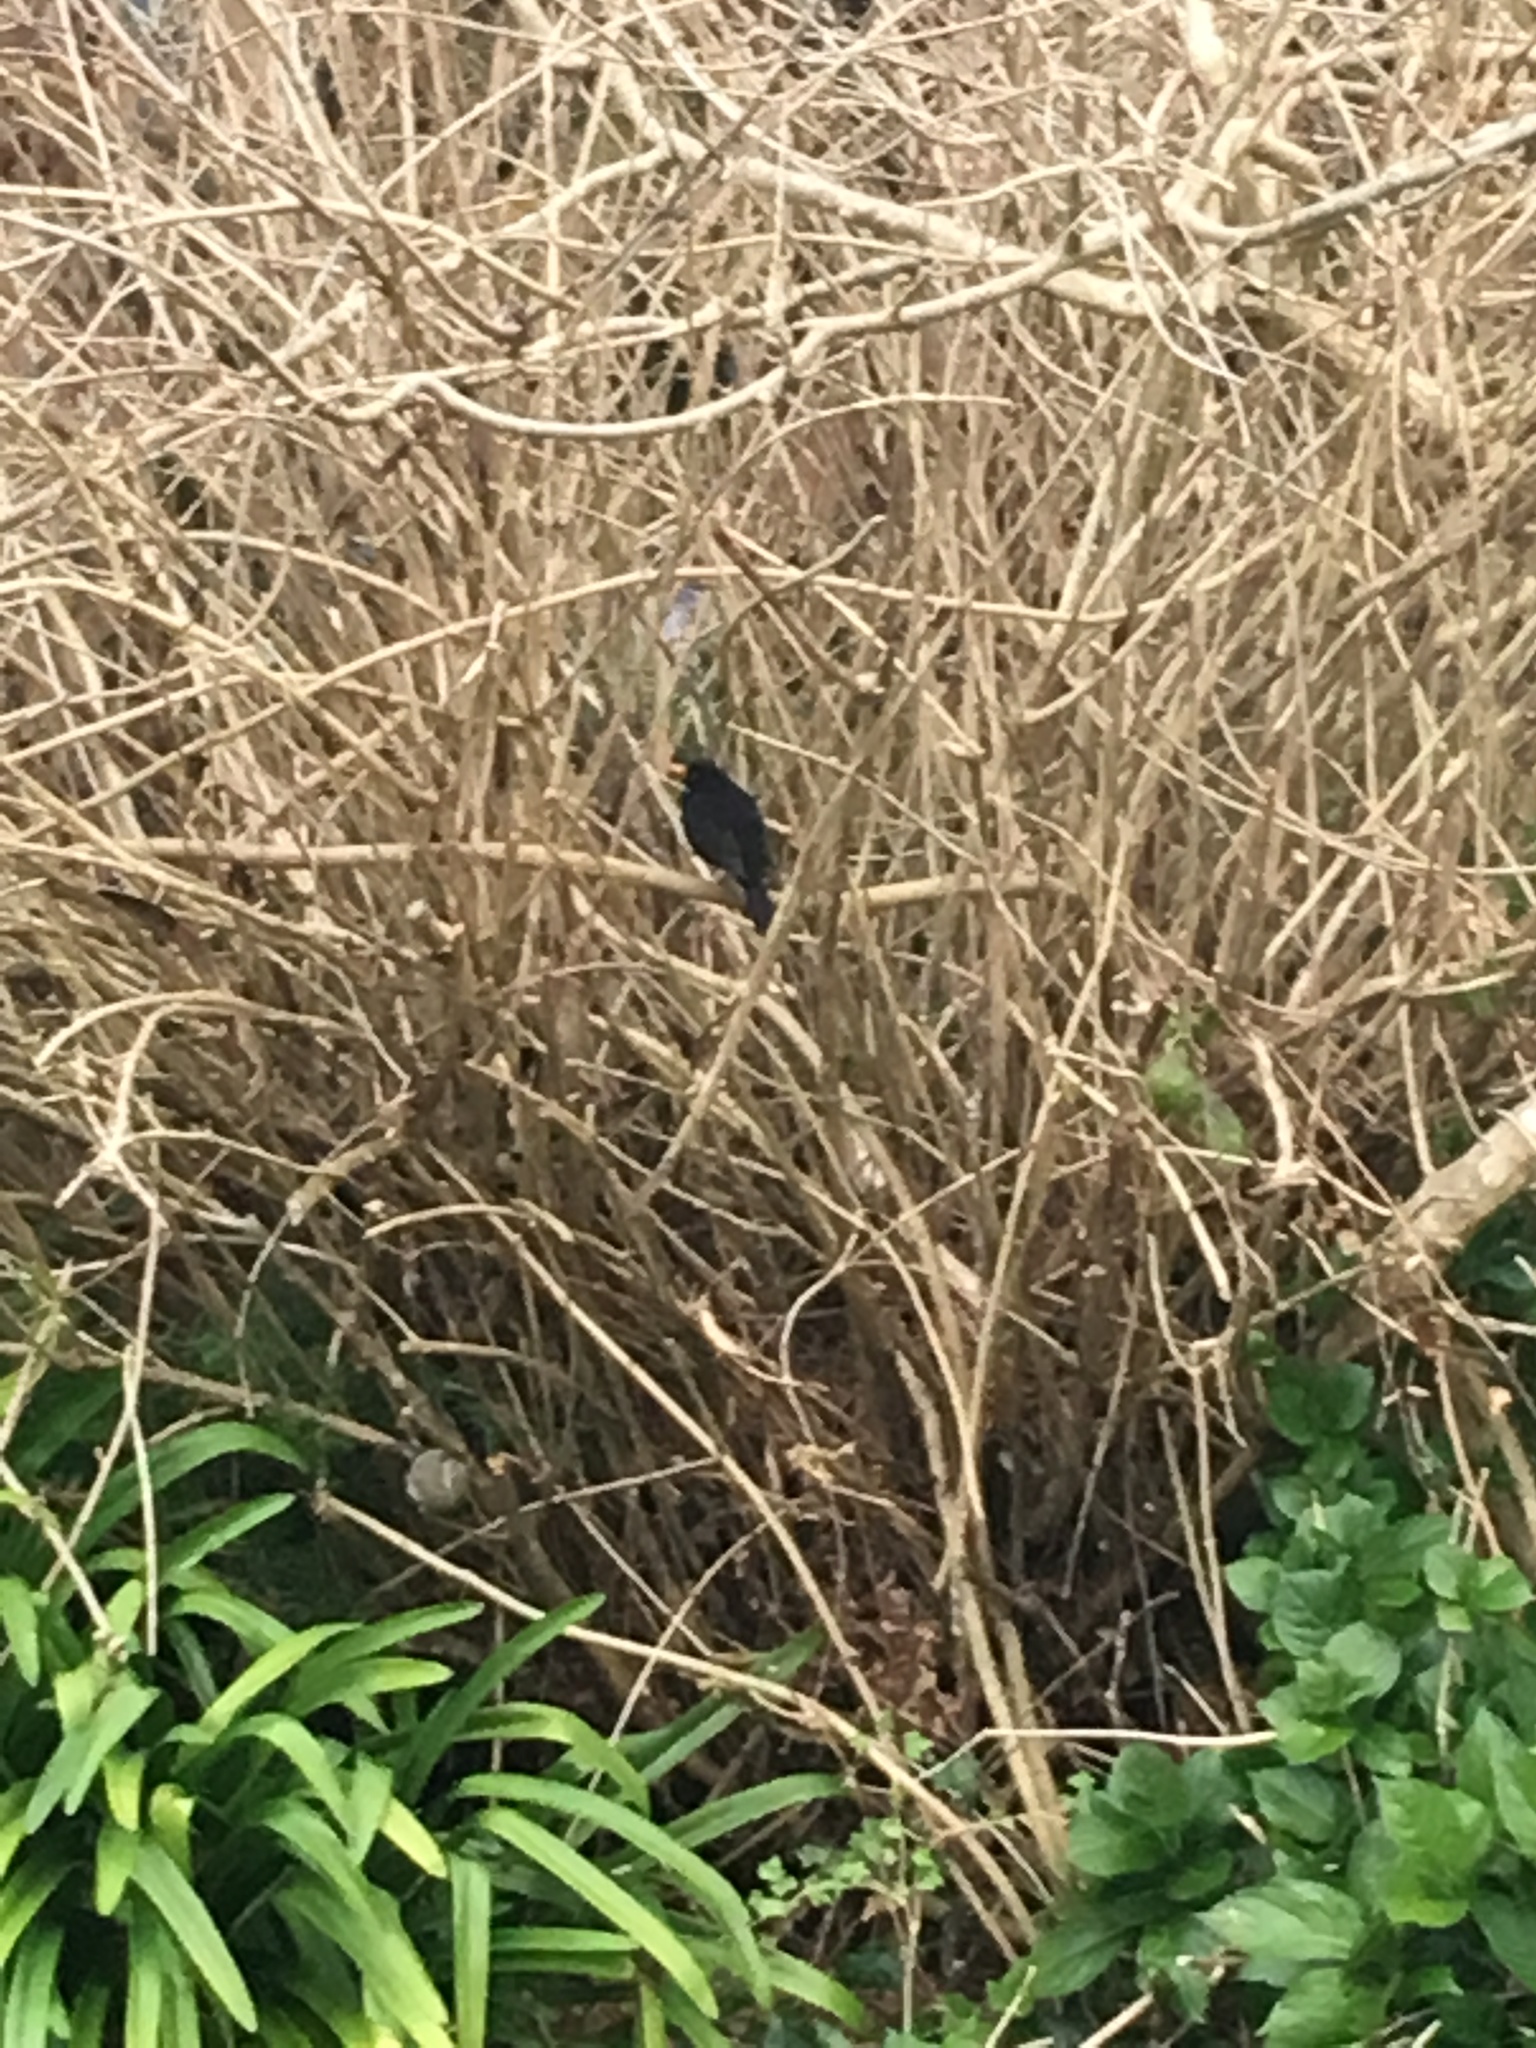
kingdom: Animalia
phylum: Chordata
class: Aves
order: Passeriformes
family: Turdidae
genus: Turdus
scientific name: Turdus merula
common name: Common blackbird
